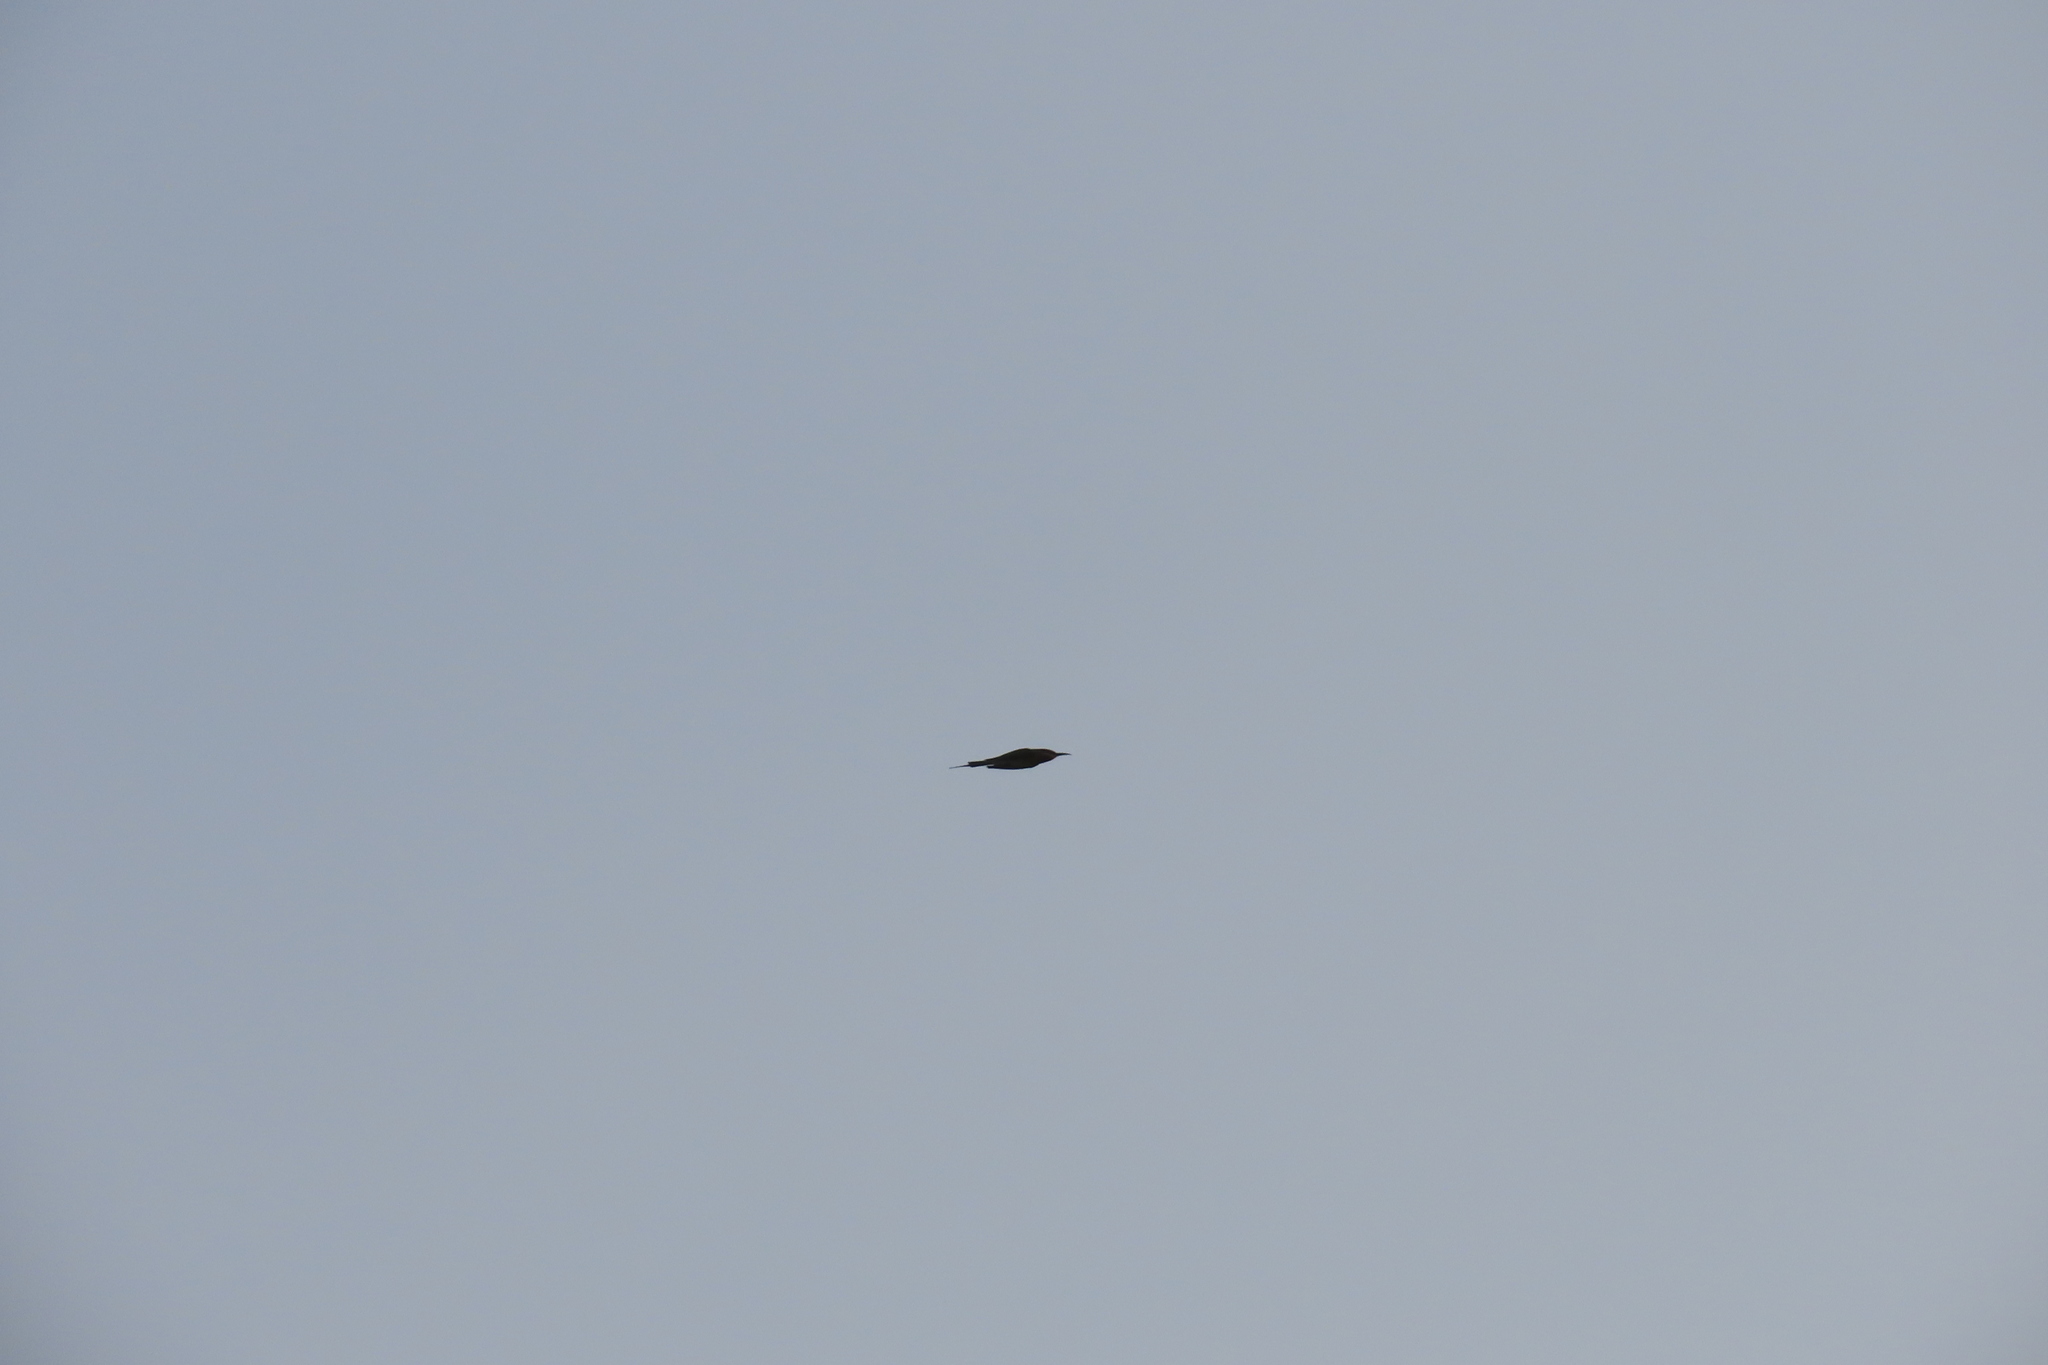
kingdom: Animalia
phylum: Chordata
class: Aves
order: Coraciiformes
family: Meropidae
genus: Merops
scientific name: Merops philippinus
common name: Blue-tailed bee-eater
